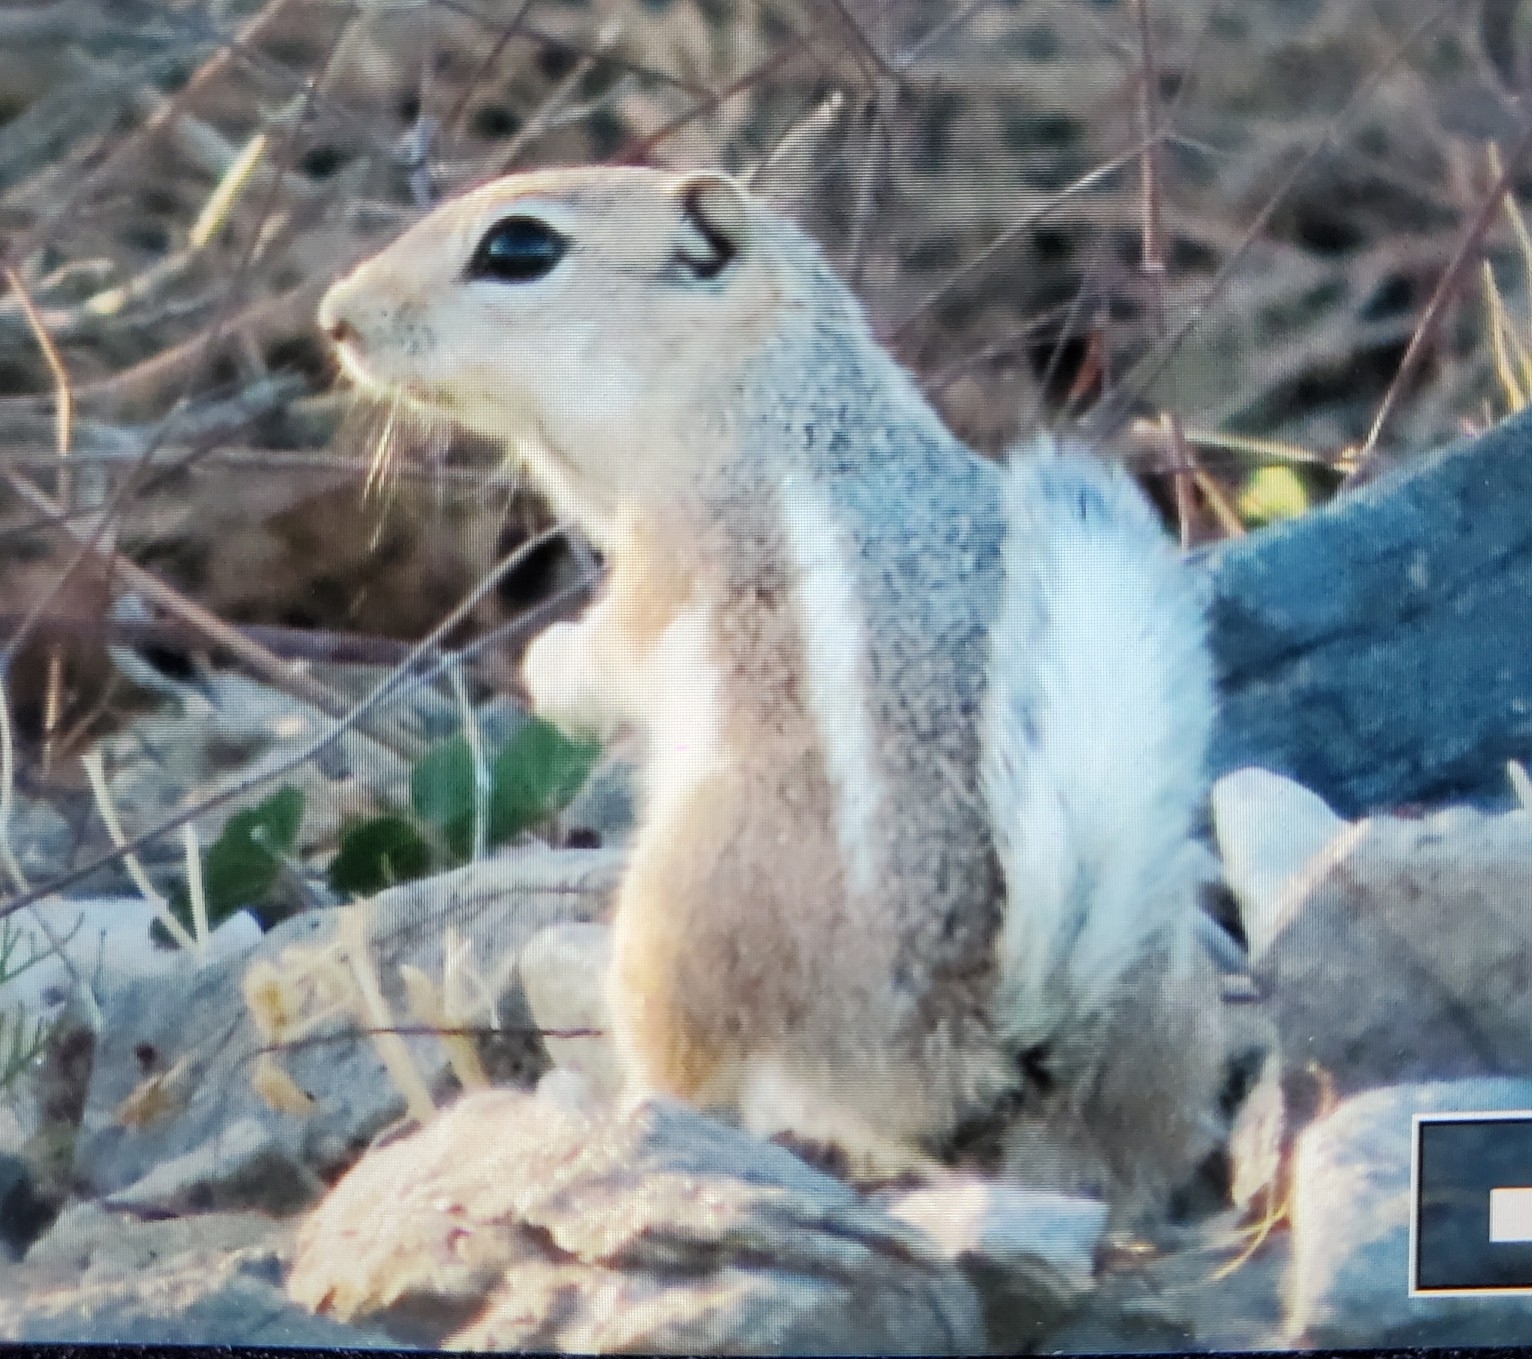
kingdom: Animalia
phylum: Chordata
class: Mammalia
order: Rodentia
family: Sciuridae
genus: Ammospermophilus
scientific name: Ammospermophilus leucurus
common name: White-tailed antelope squirrel
